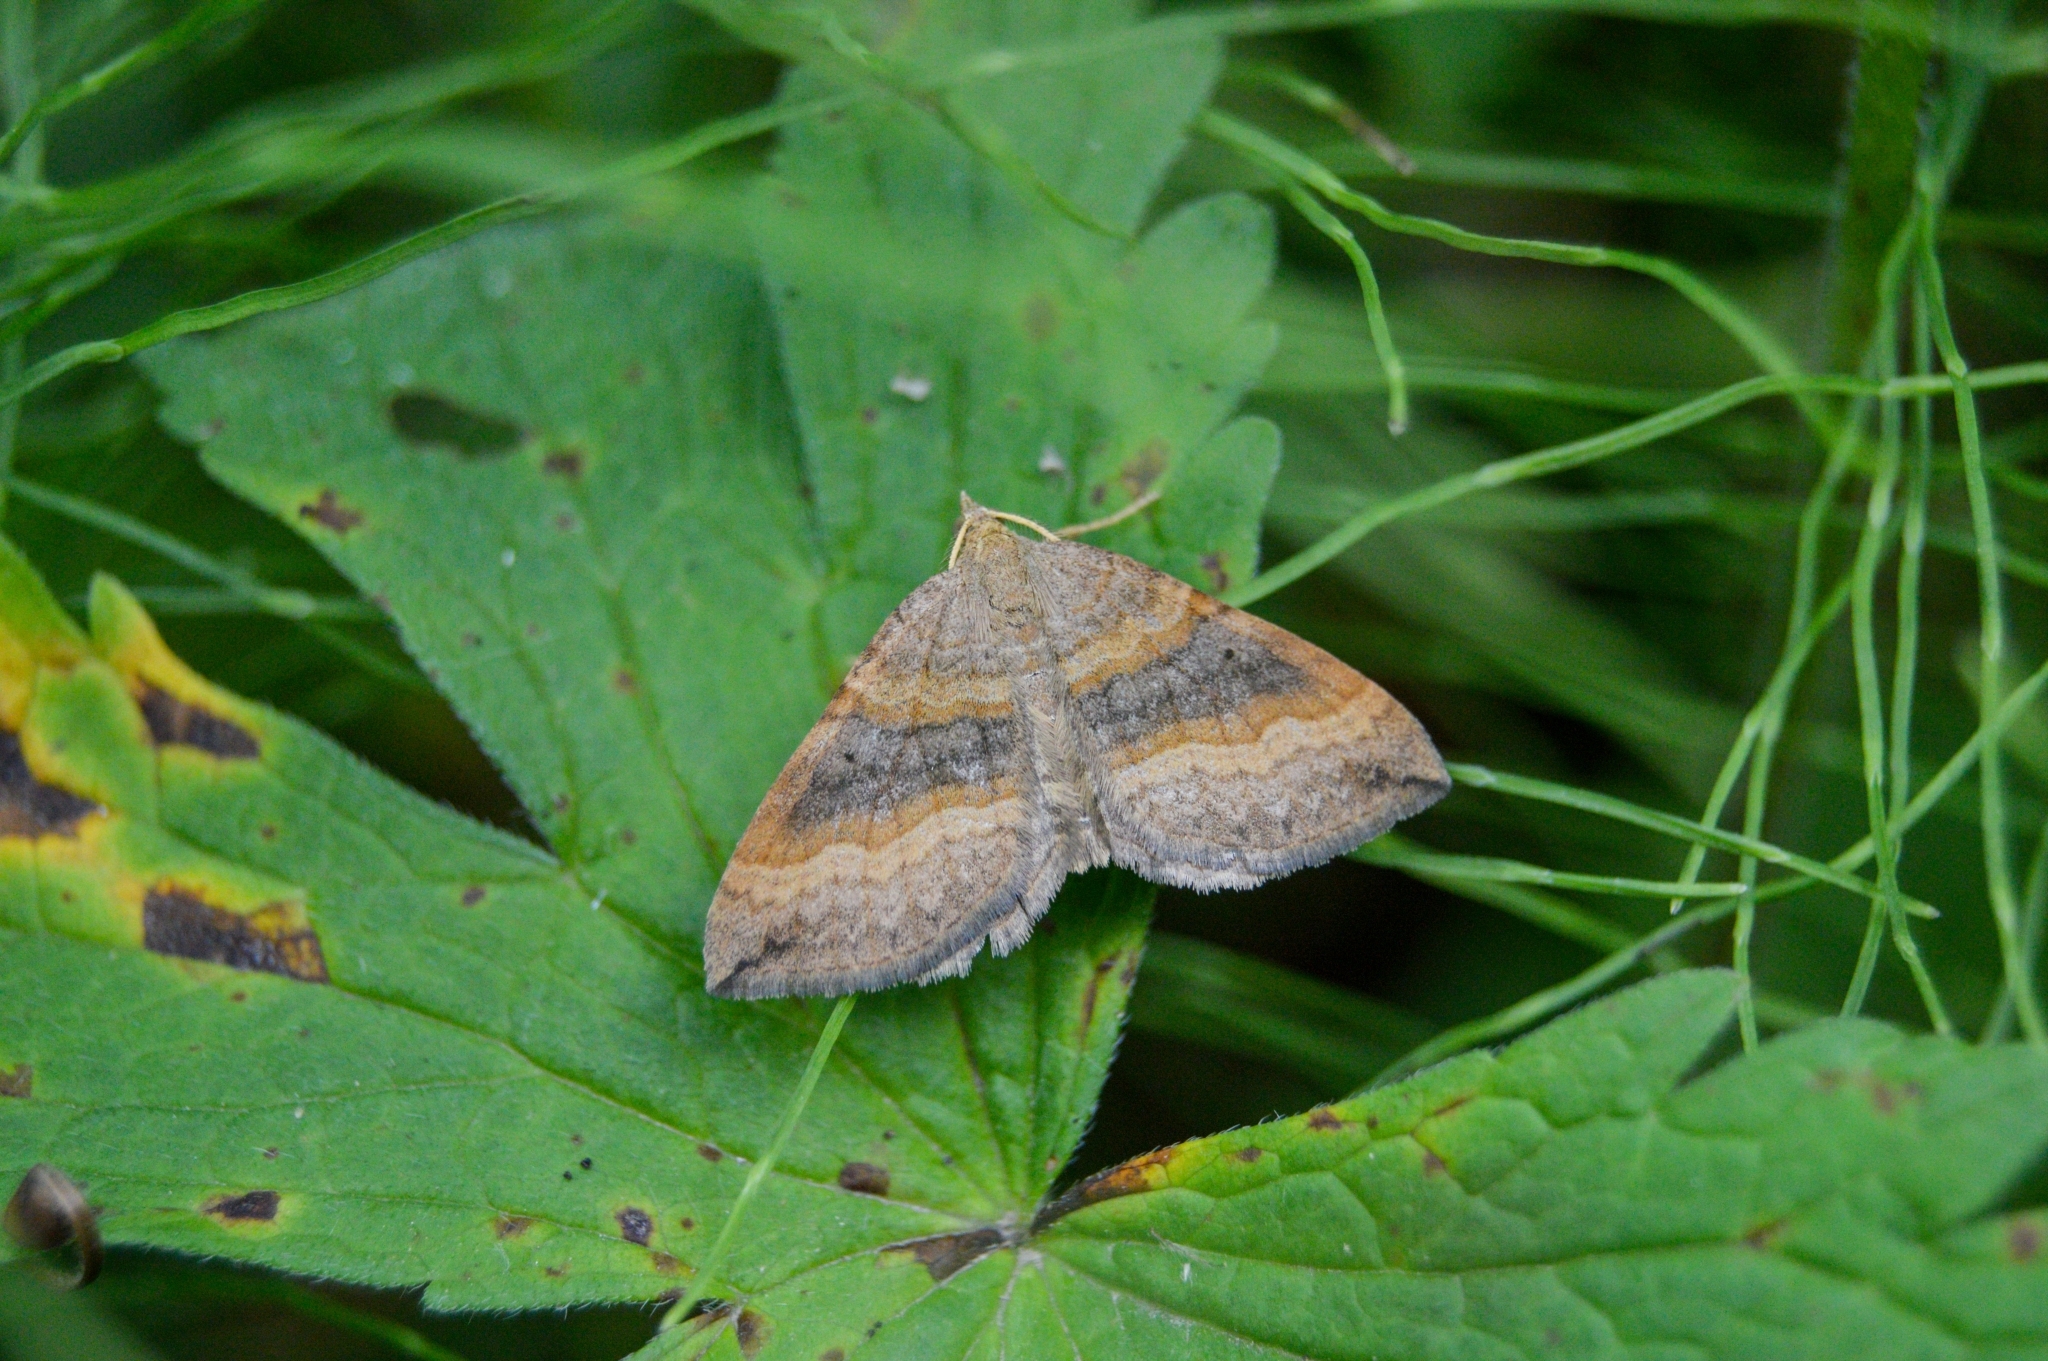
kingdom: Animalia
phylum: Arthropoda
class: Insecta
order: Lepidoptera
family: Geometridae
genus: Scotopteryx
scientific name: Scotopteryx chenopodiata
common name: Shaded broad-bar
